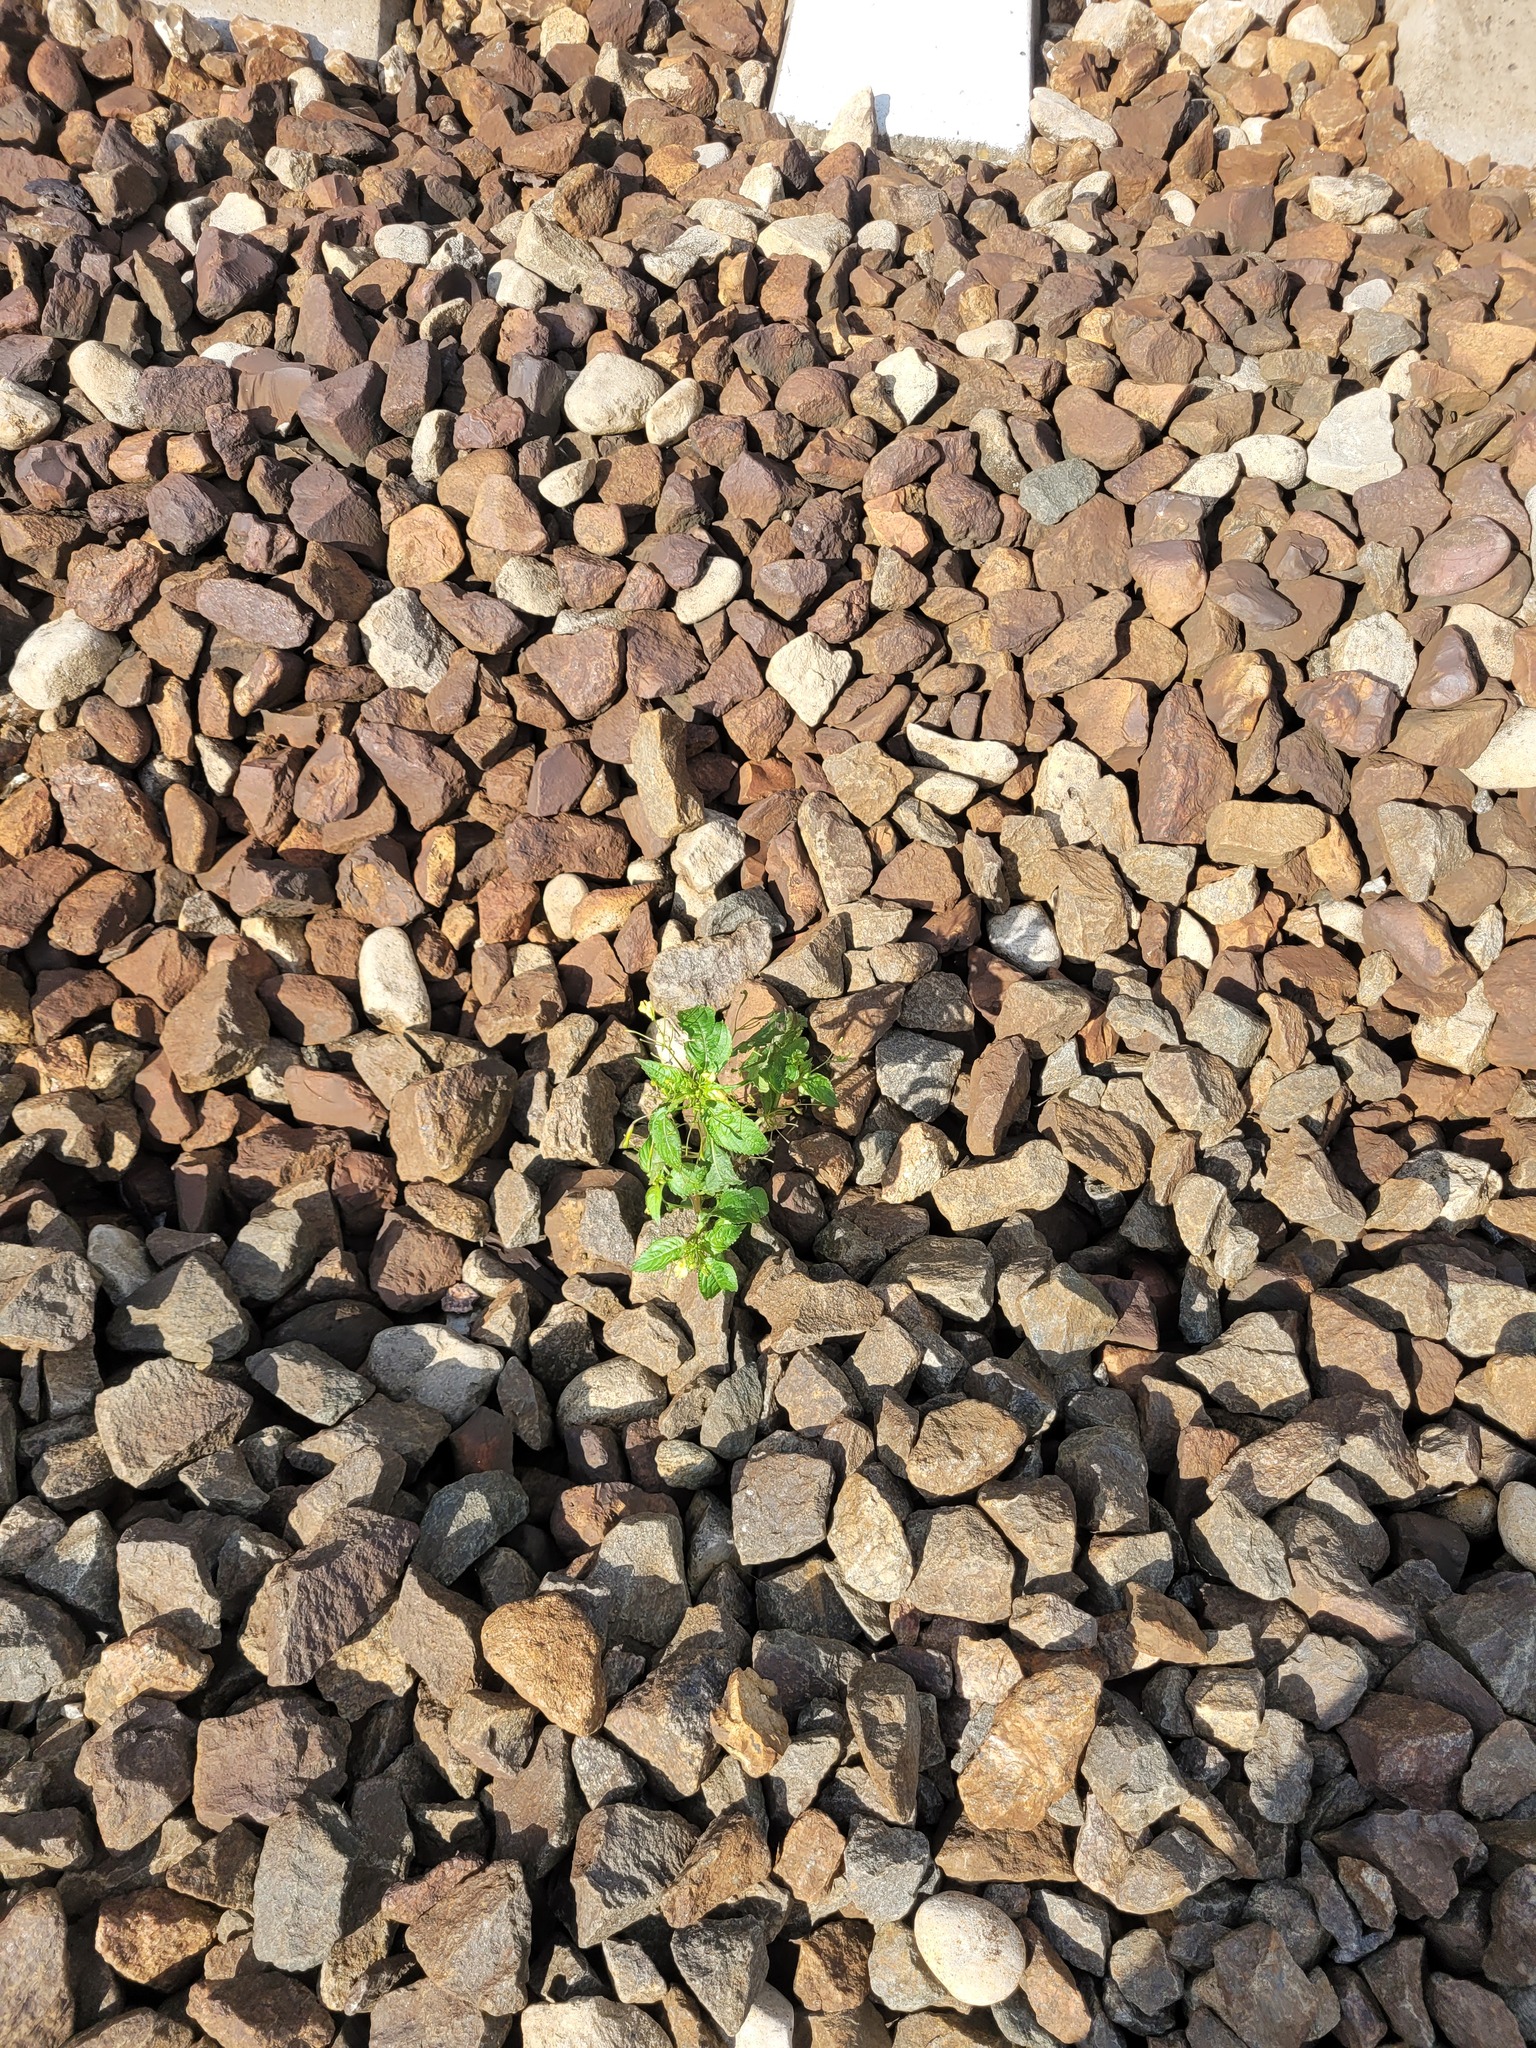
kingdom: Plantae
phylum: Tracheophyta
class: Magnoliopsida
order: Ericales
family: Balsaminaceae
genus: Impatiens
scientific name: Impatiens parviflora
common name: Small balsam
